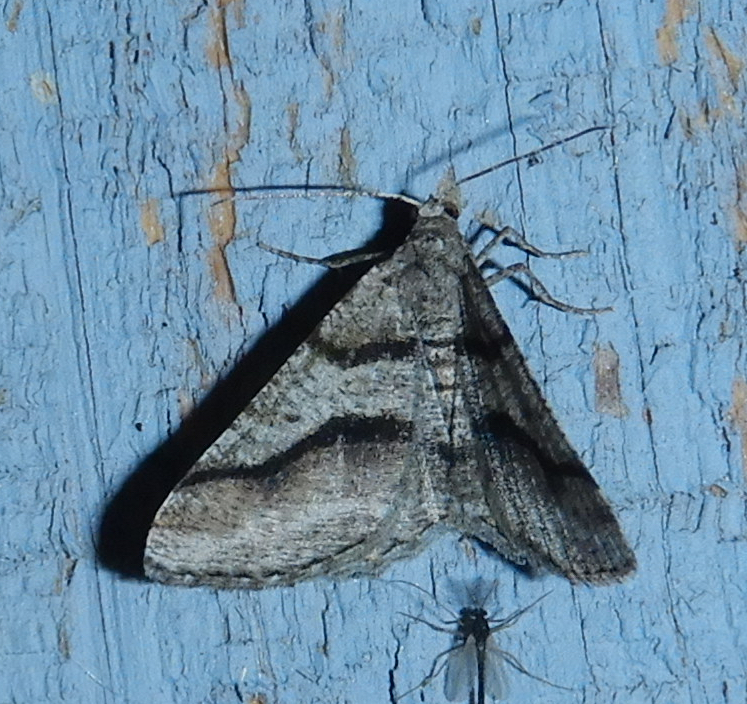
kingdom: Animalia
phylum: Arthropoda
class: Insecta
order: Lepidoptera
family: Geometridae
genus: Digrammia
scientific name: Digrammia continuata
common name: Curve-lined angle
